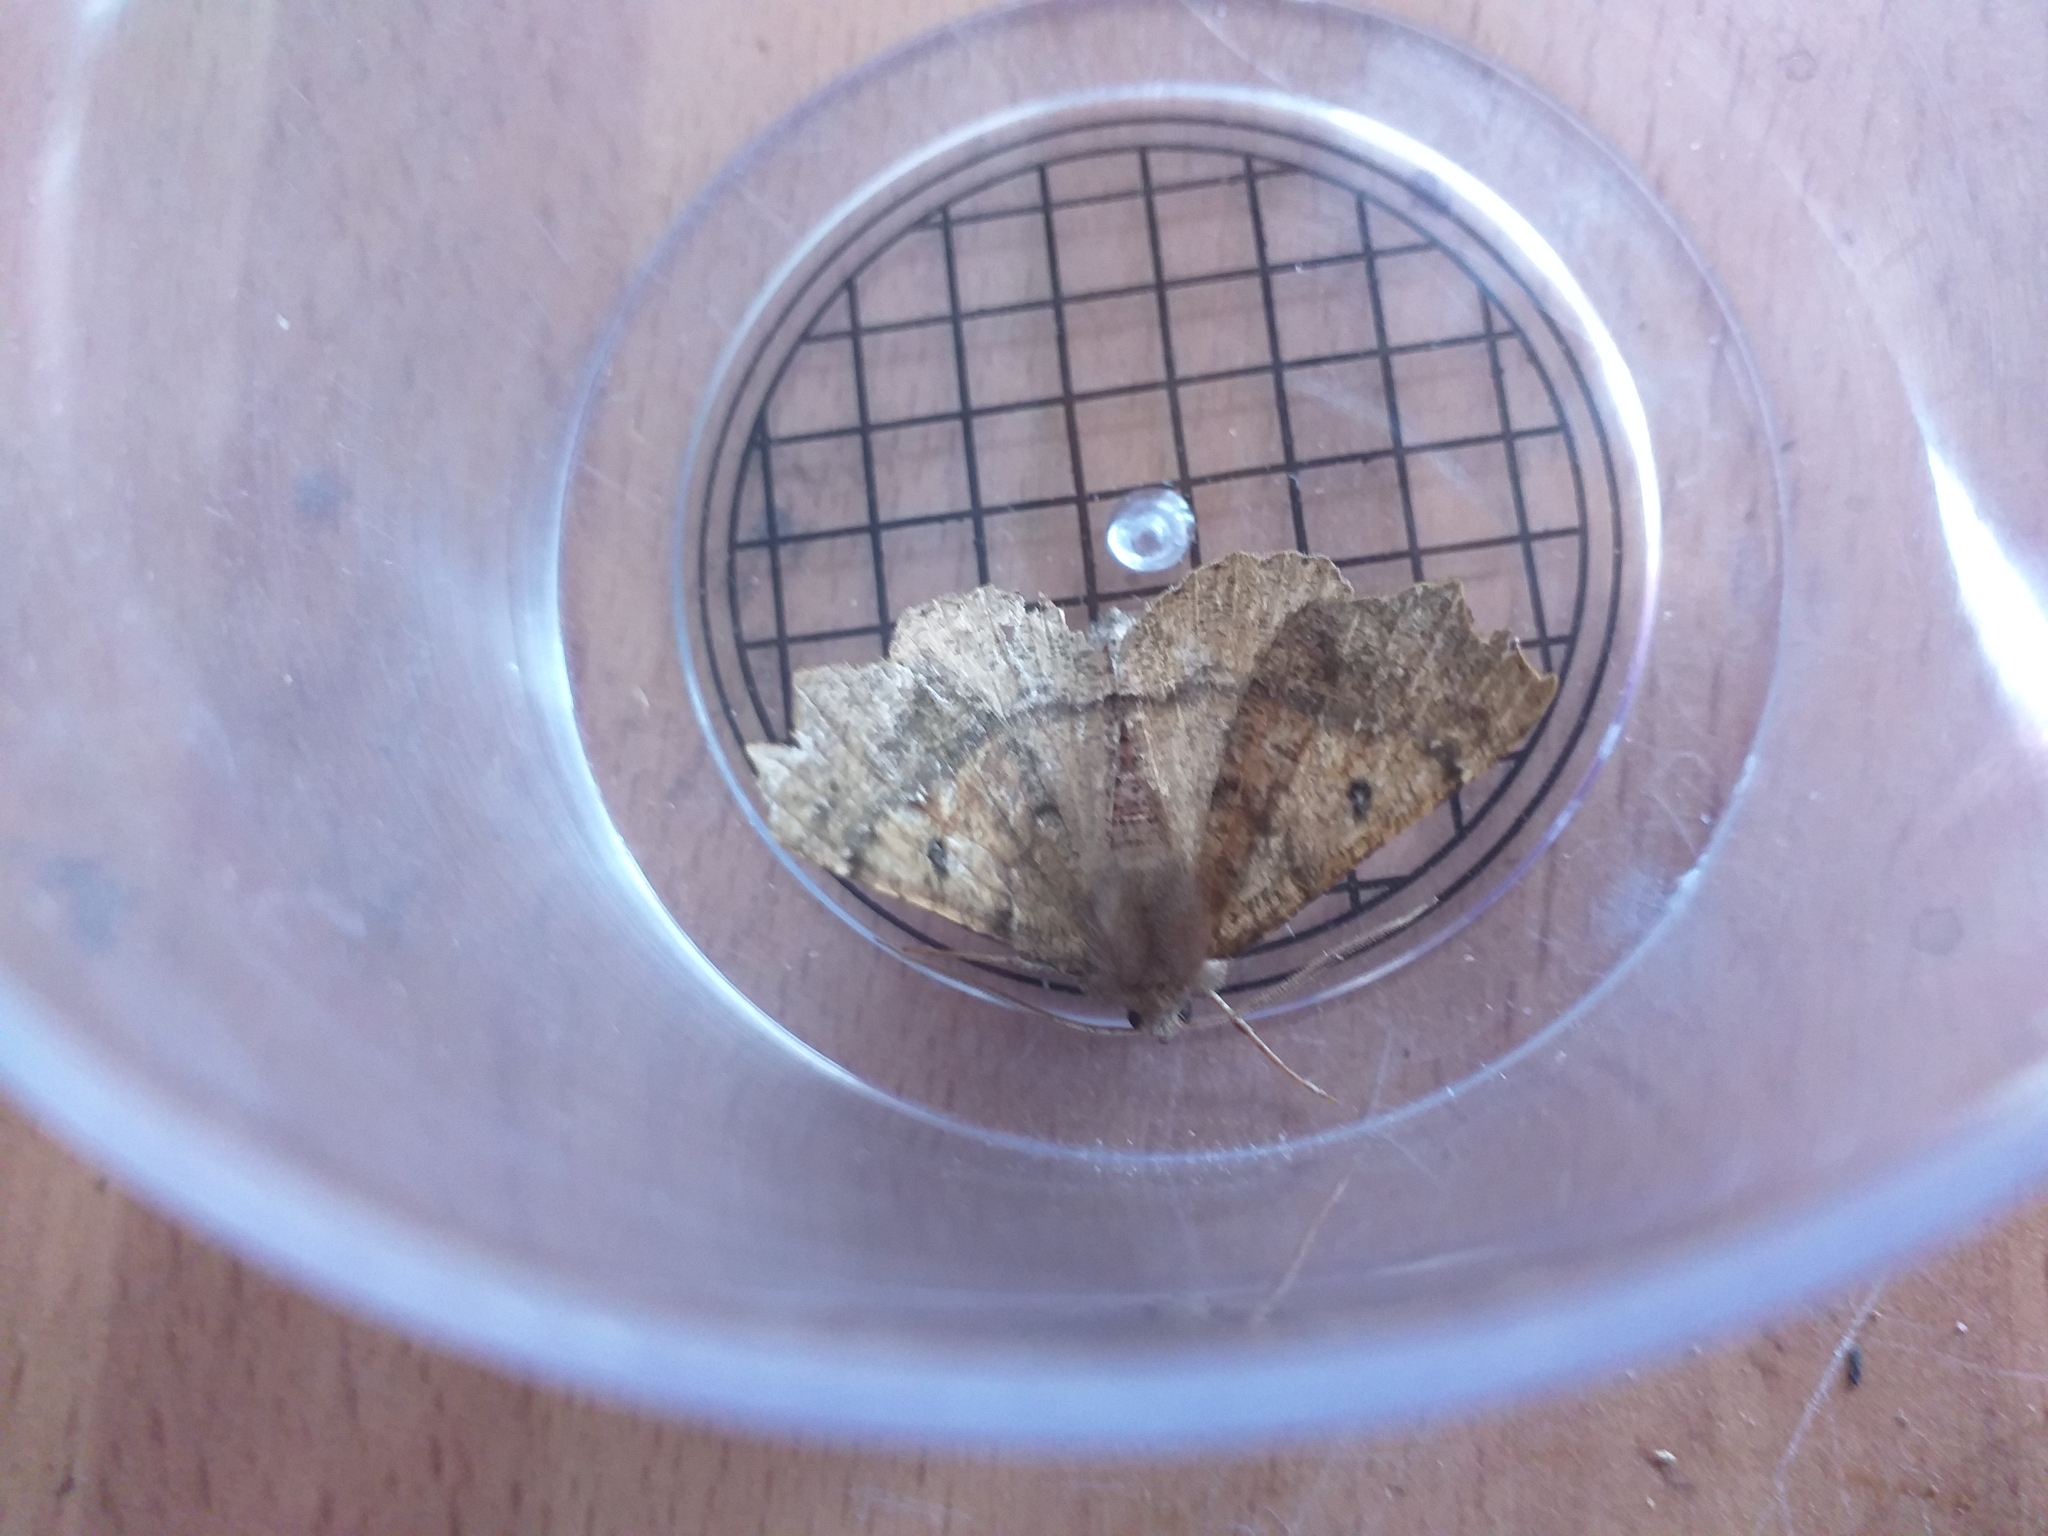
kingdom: Animalia
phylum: Arthropoda
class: Insecta
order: Lepidoptera
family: Geometridae
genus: Odontopera
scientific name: Odontopera bidentata
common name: Scalloped hazel
